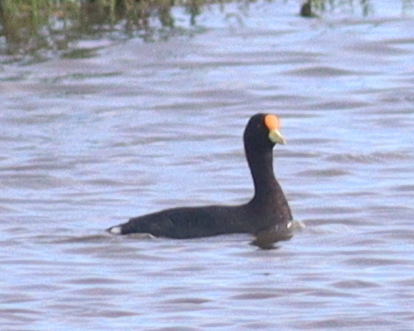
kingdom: Animalia
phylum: Chordata
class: Aves
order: Gruiformes
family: Rallidae
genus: Fulica
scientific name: Fulica leucoptera
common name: White-winged coot
